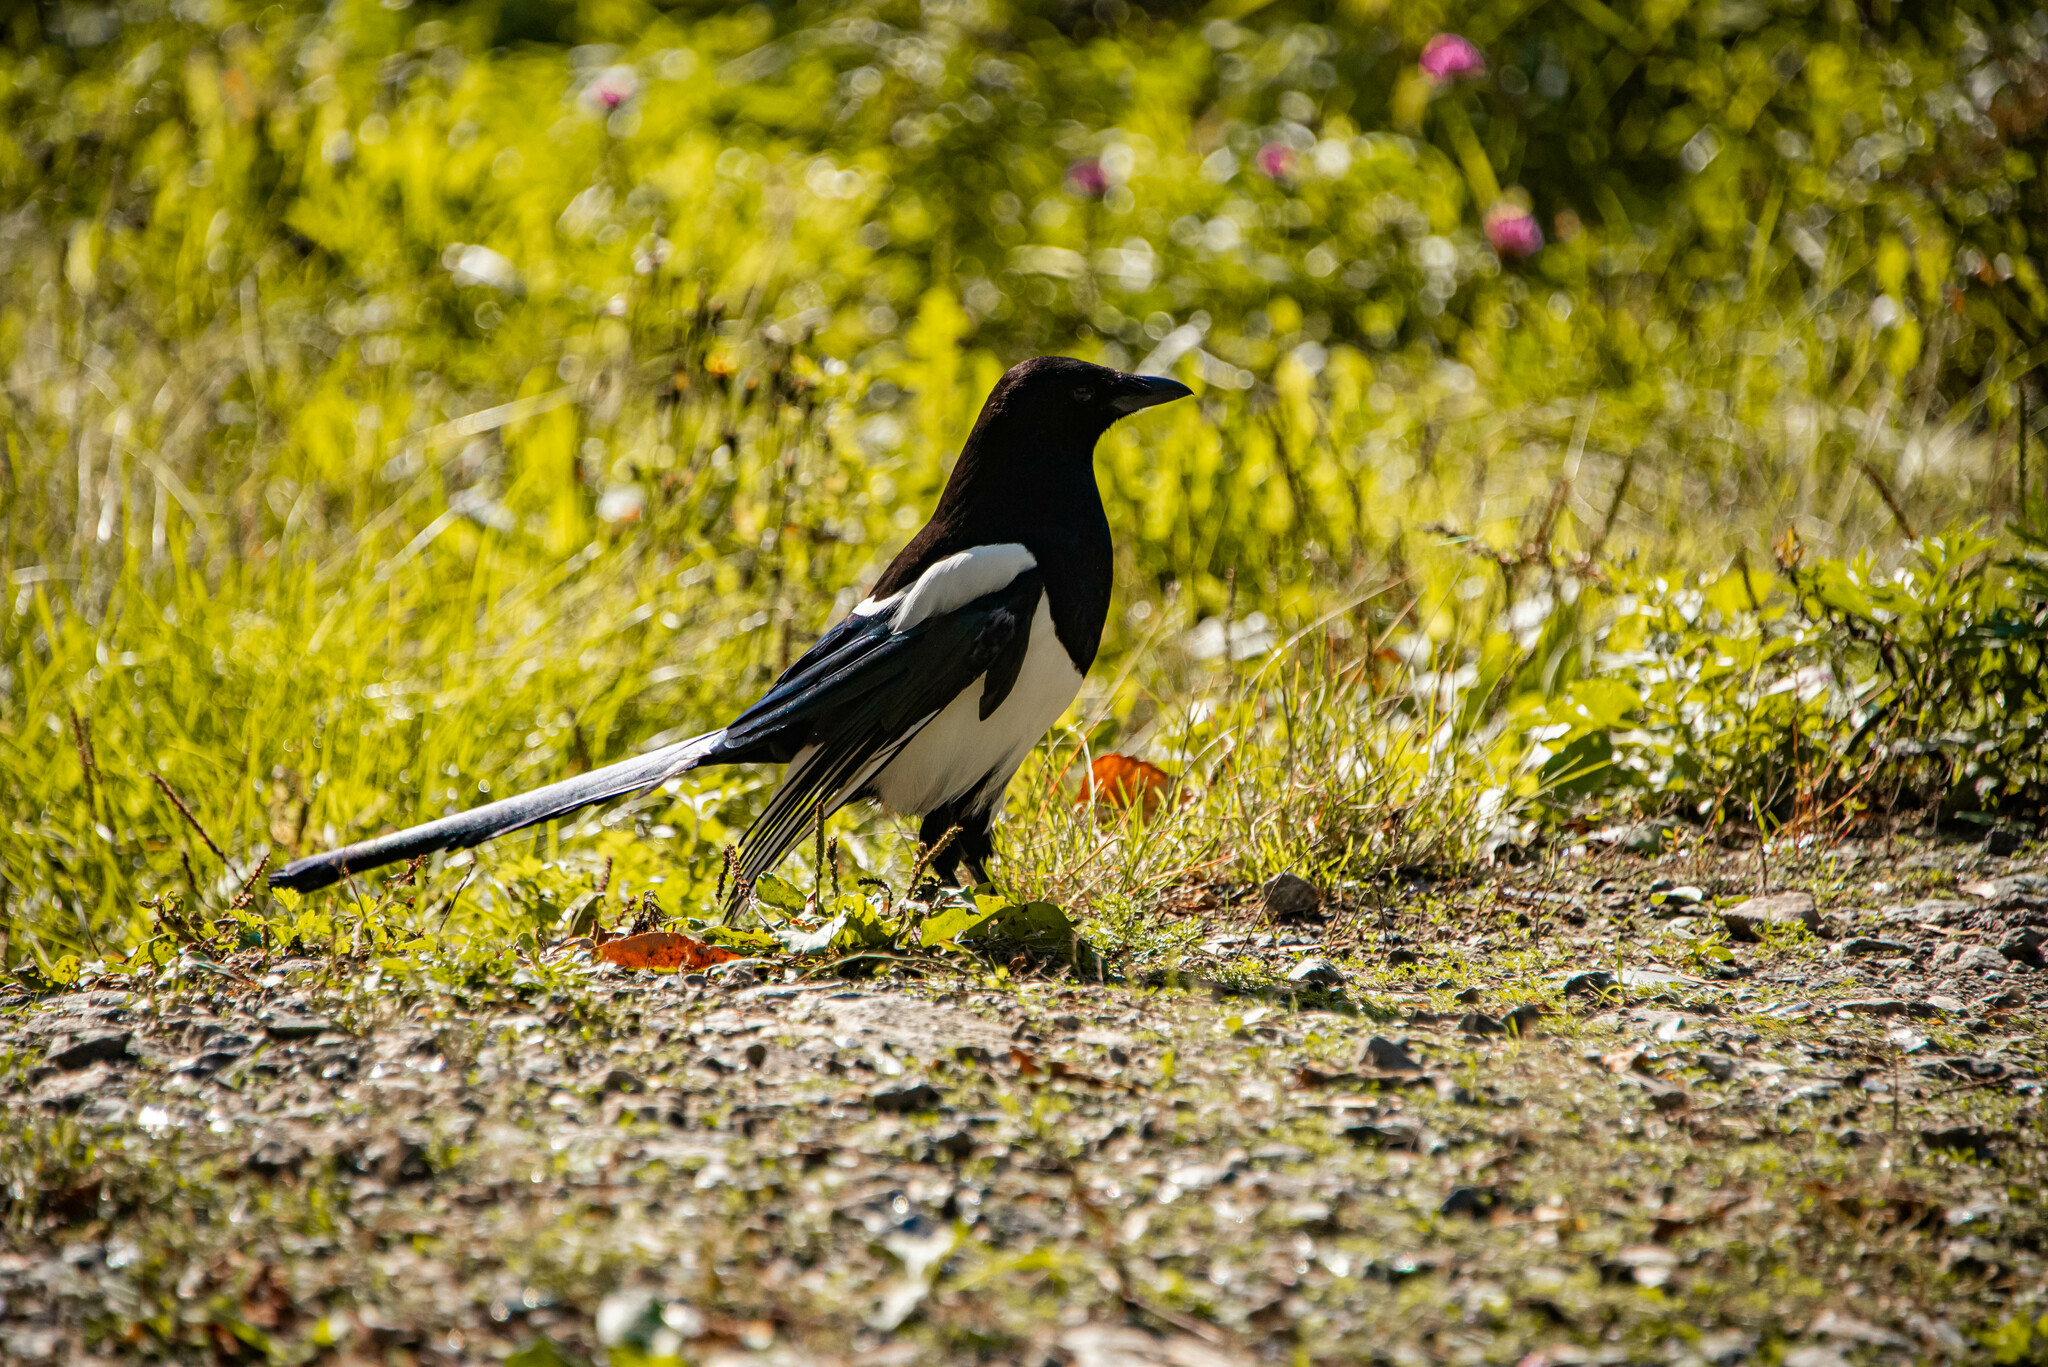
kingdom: Animalia
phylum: Chordata
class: Aves
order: Passeriformes
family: Corvidae
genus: Pica
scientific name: Pica pica
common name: Eurasian magpie
